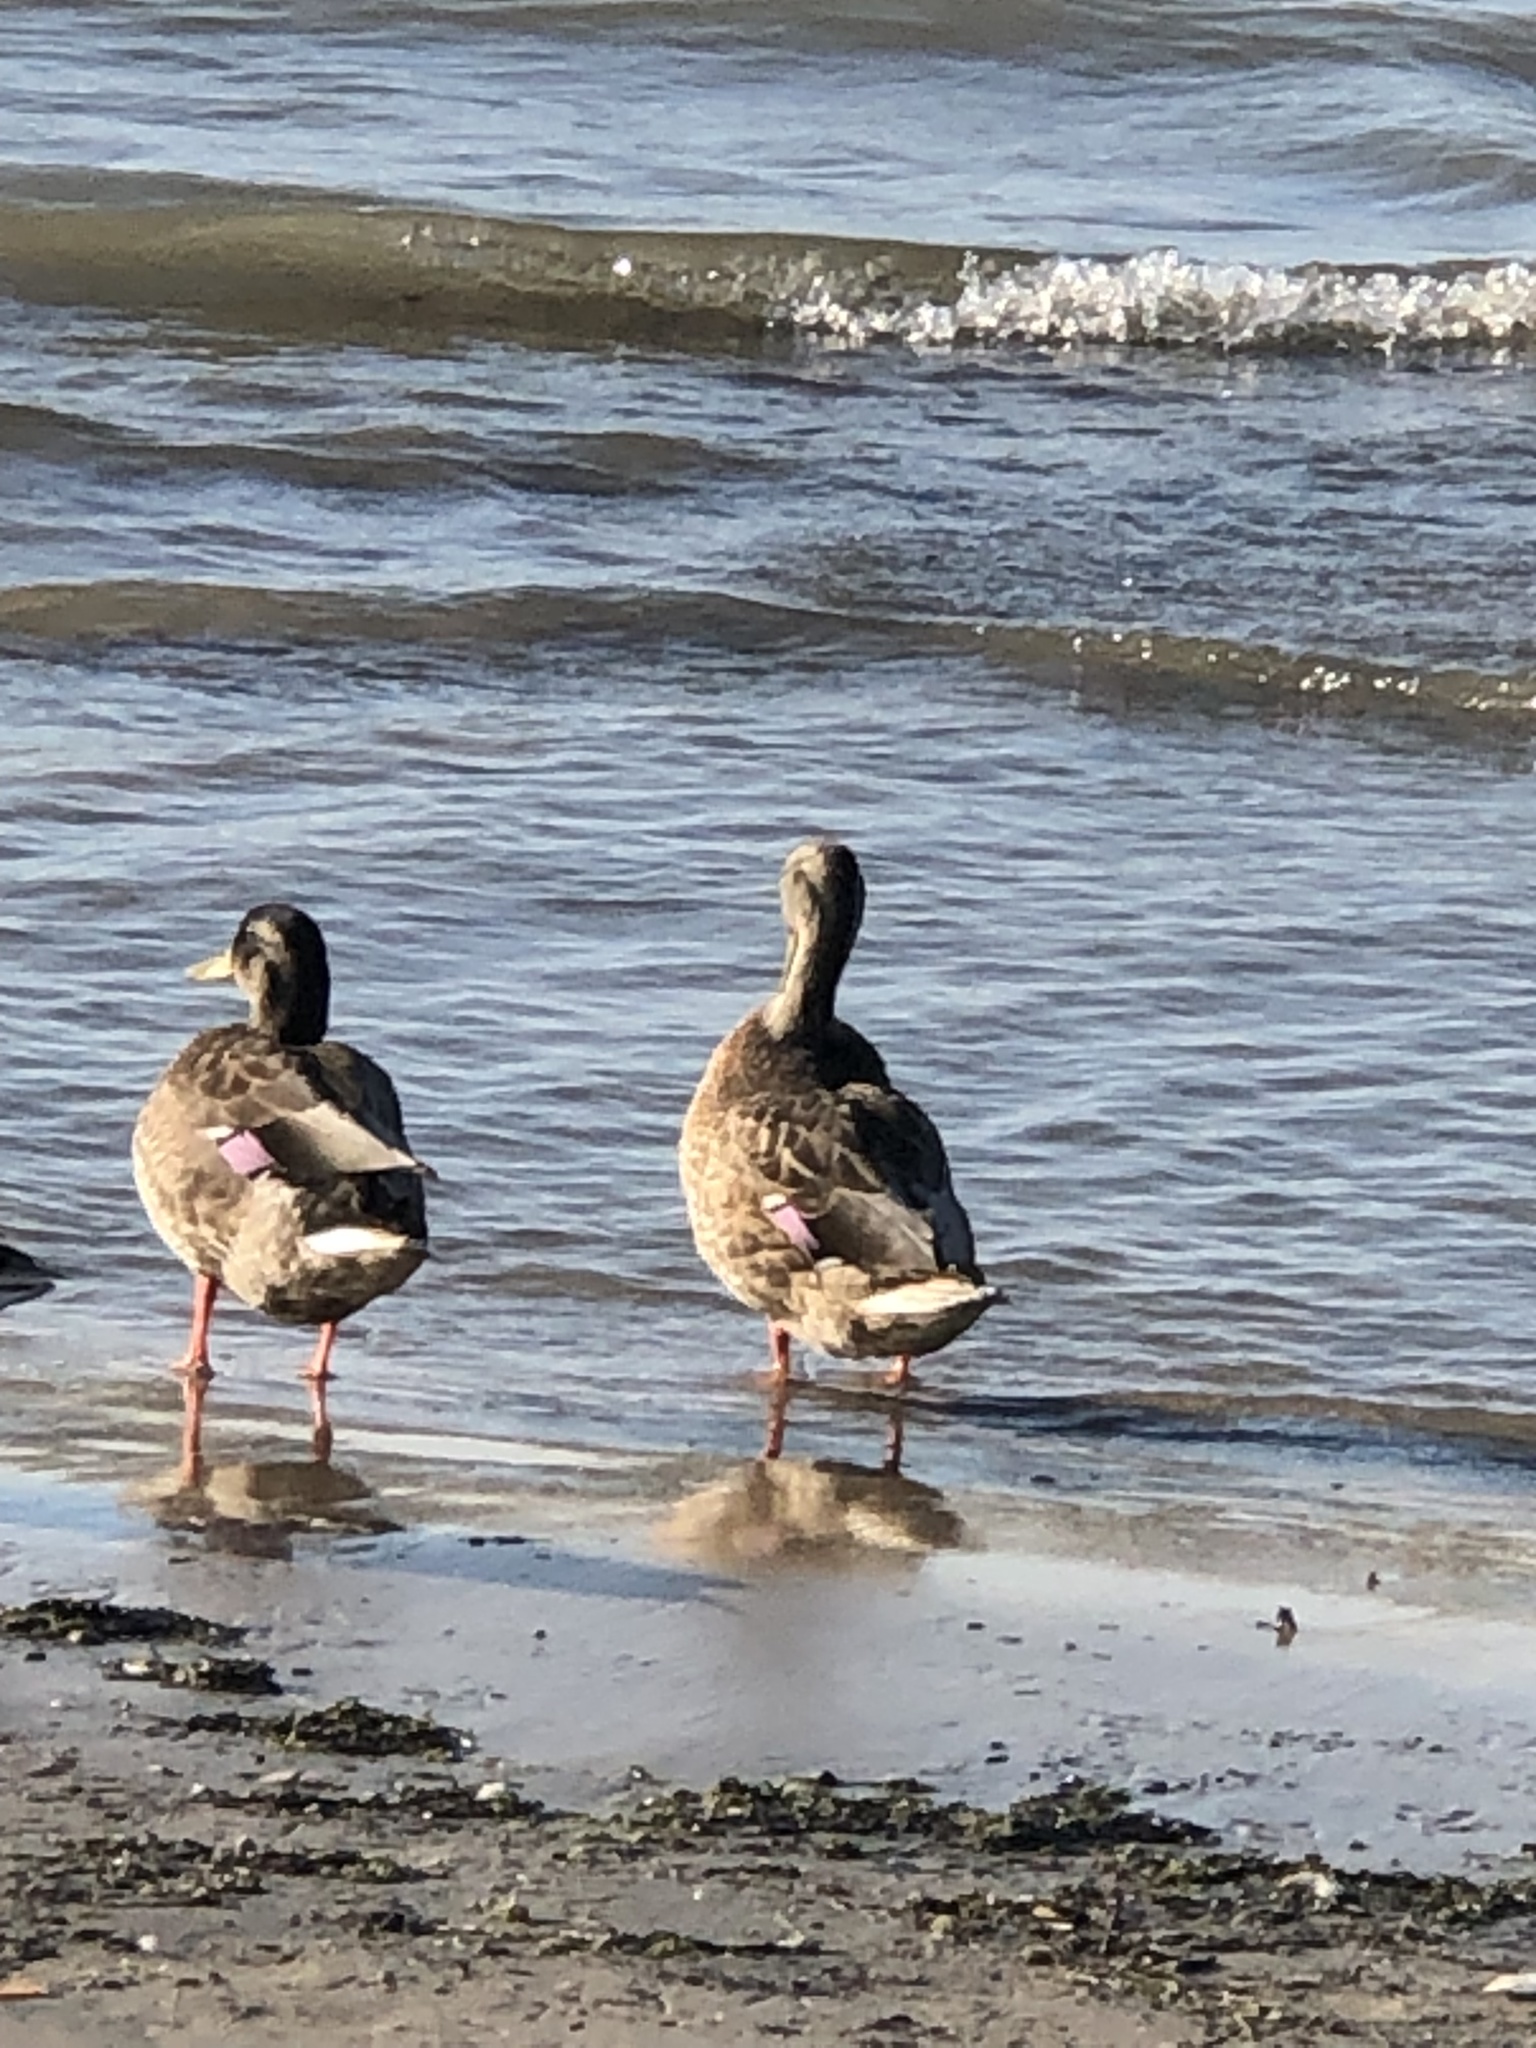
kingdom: Animalia
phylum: Chordata
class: Aves
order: Anseriformes
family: Anatidae
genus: Anas
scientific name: Anas platyrhynchos
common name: Mallard
